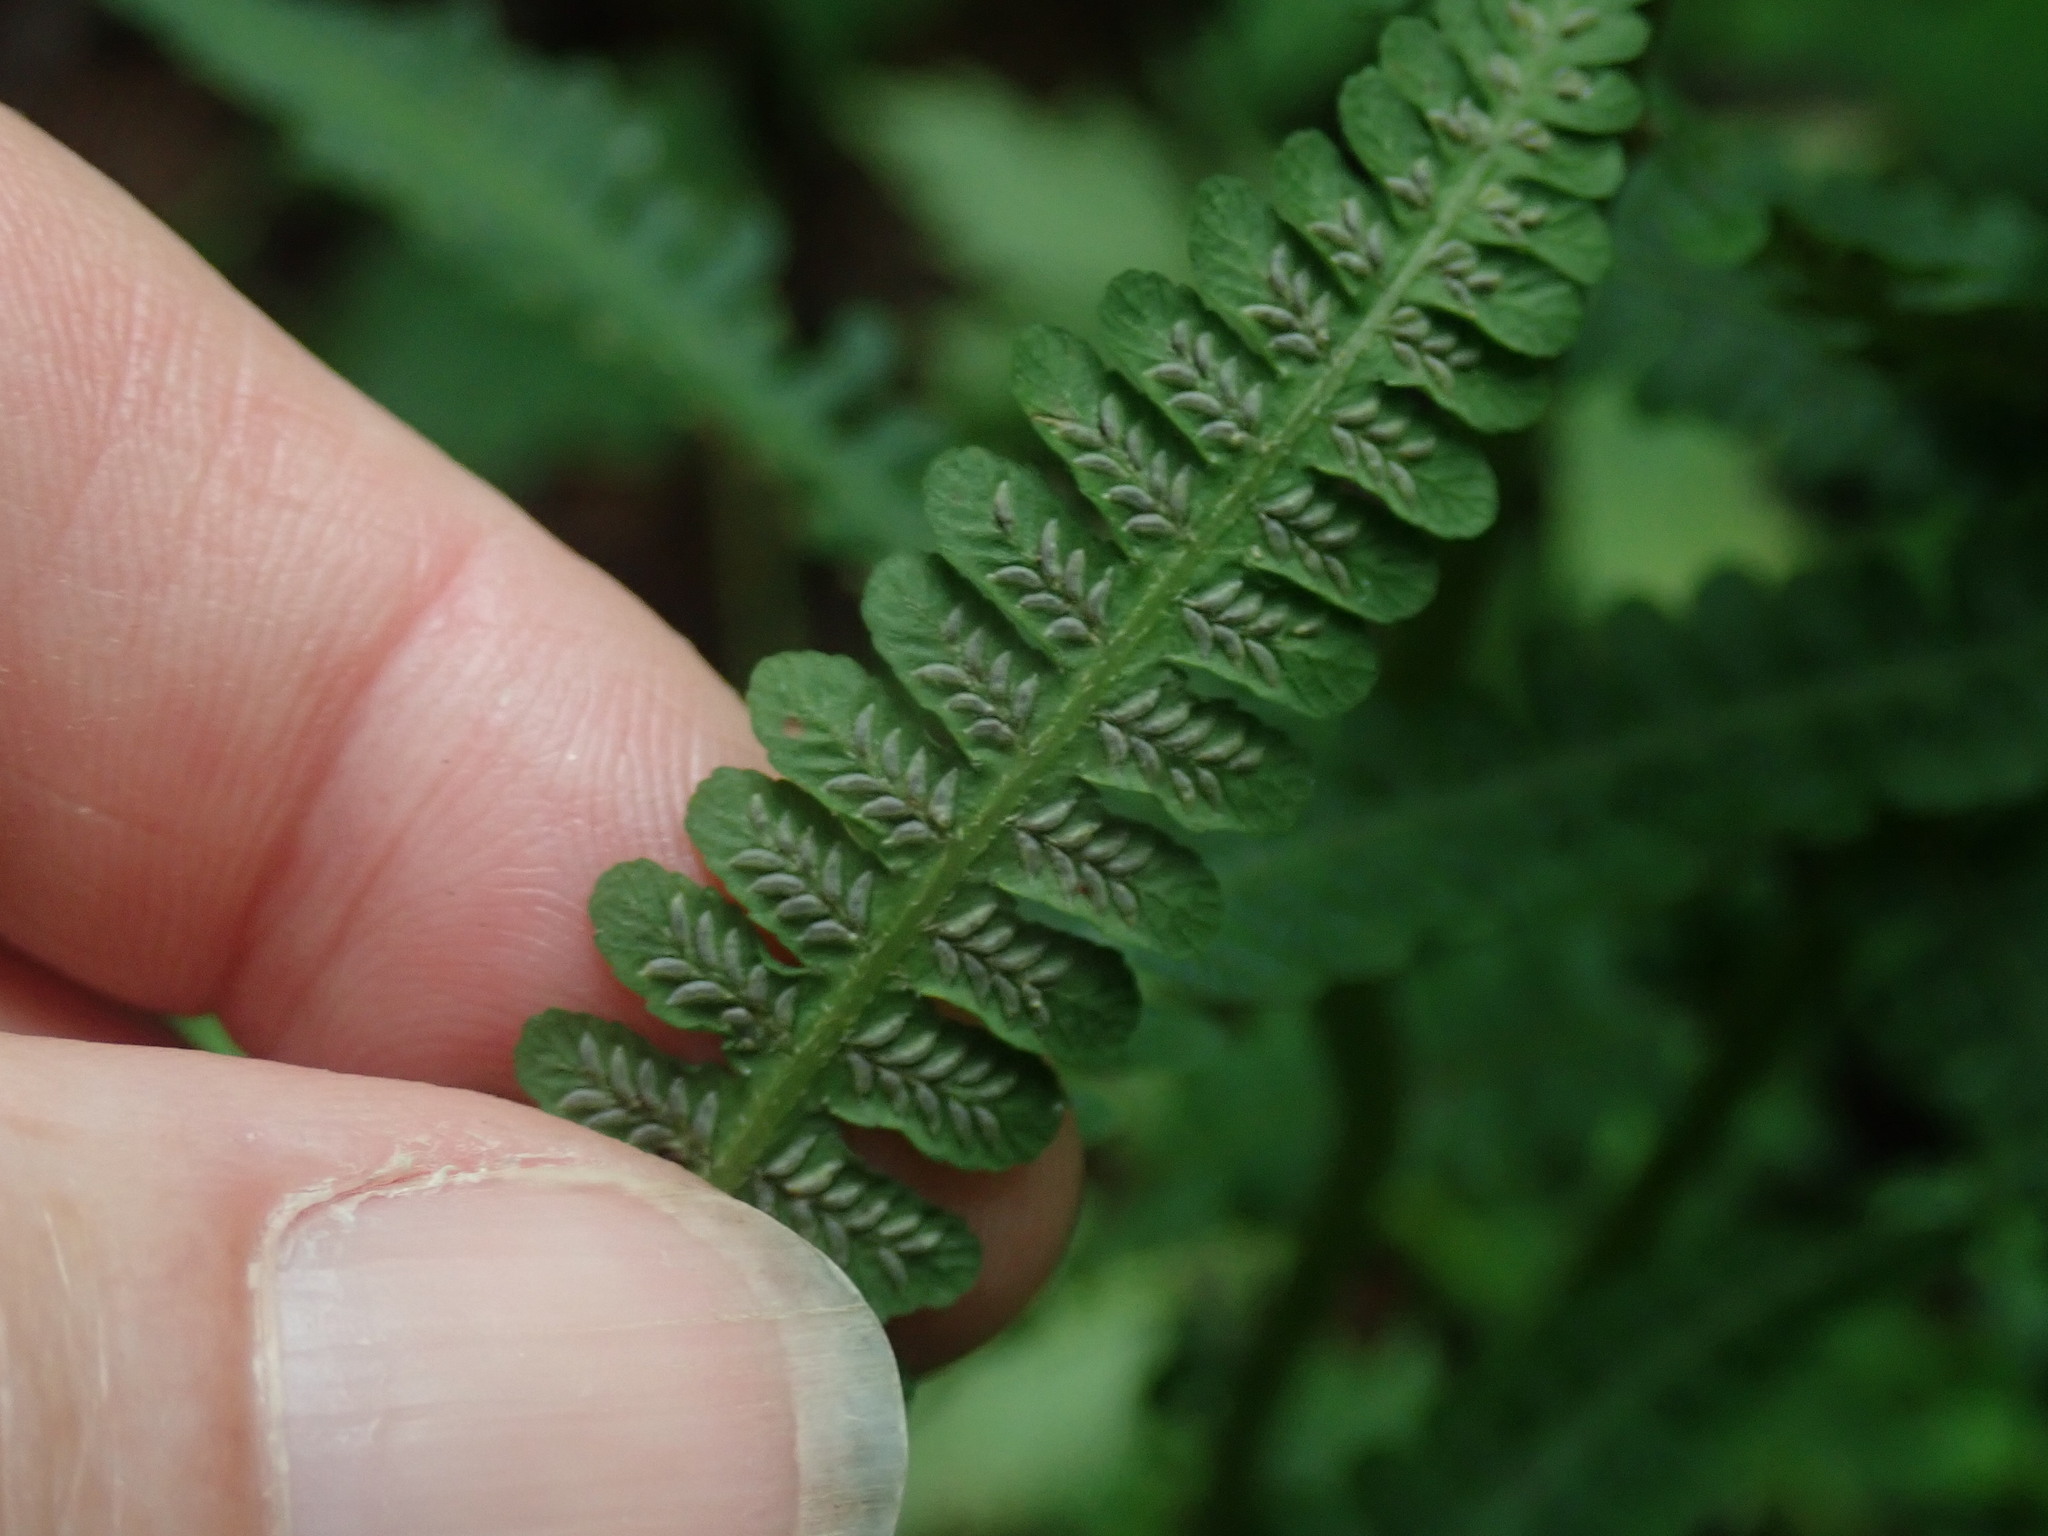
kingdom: Plantae
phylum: Tracheophyta
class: Polypodiopsida
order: Polypodiales
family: Athyriaceae
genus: Deparia
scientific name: Deparia acrostichoides
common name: Silver false spleenwort
